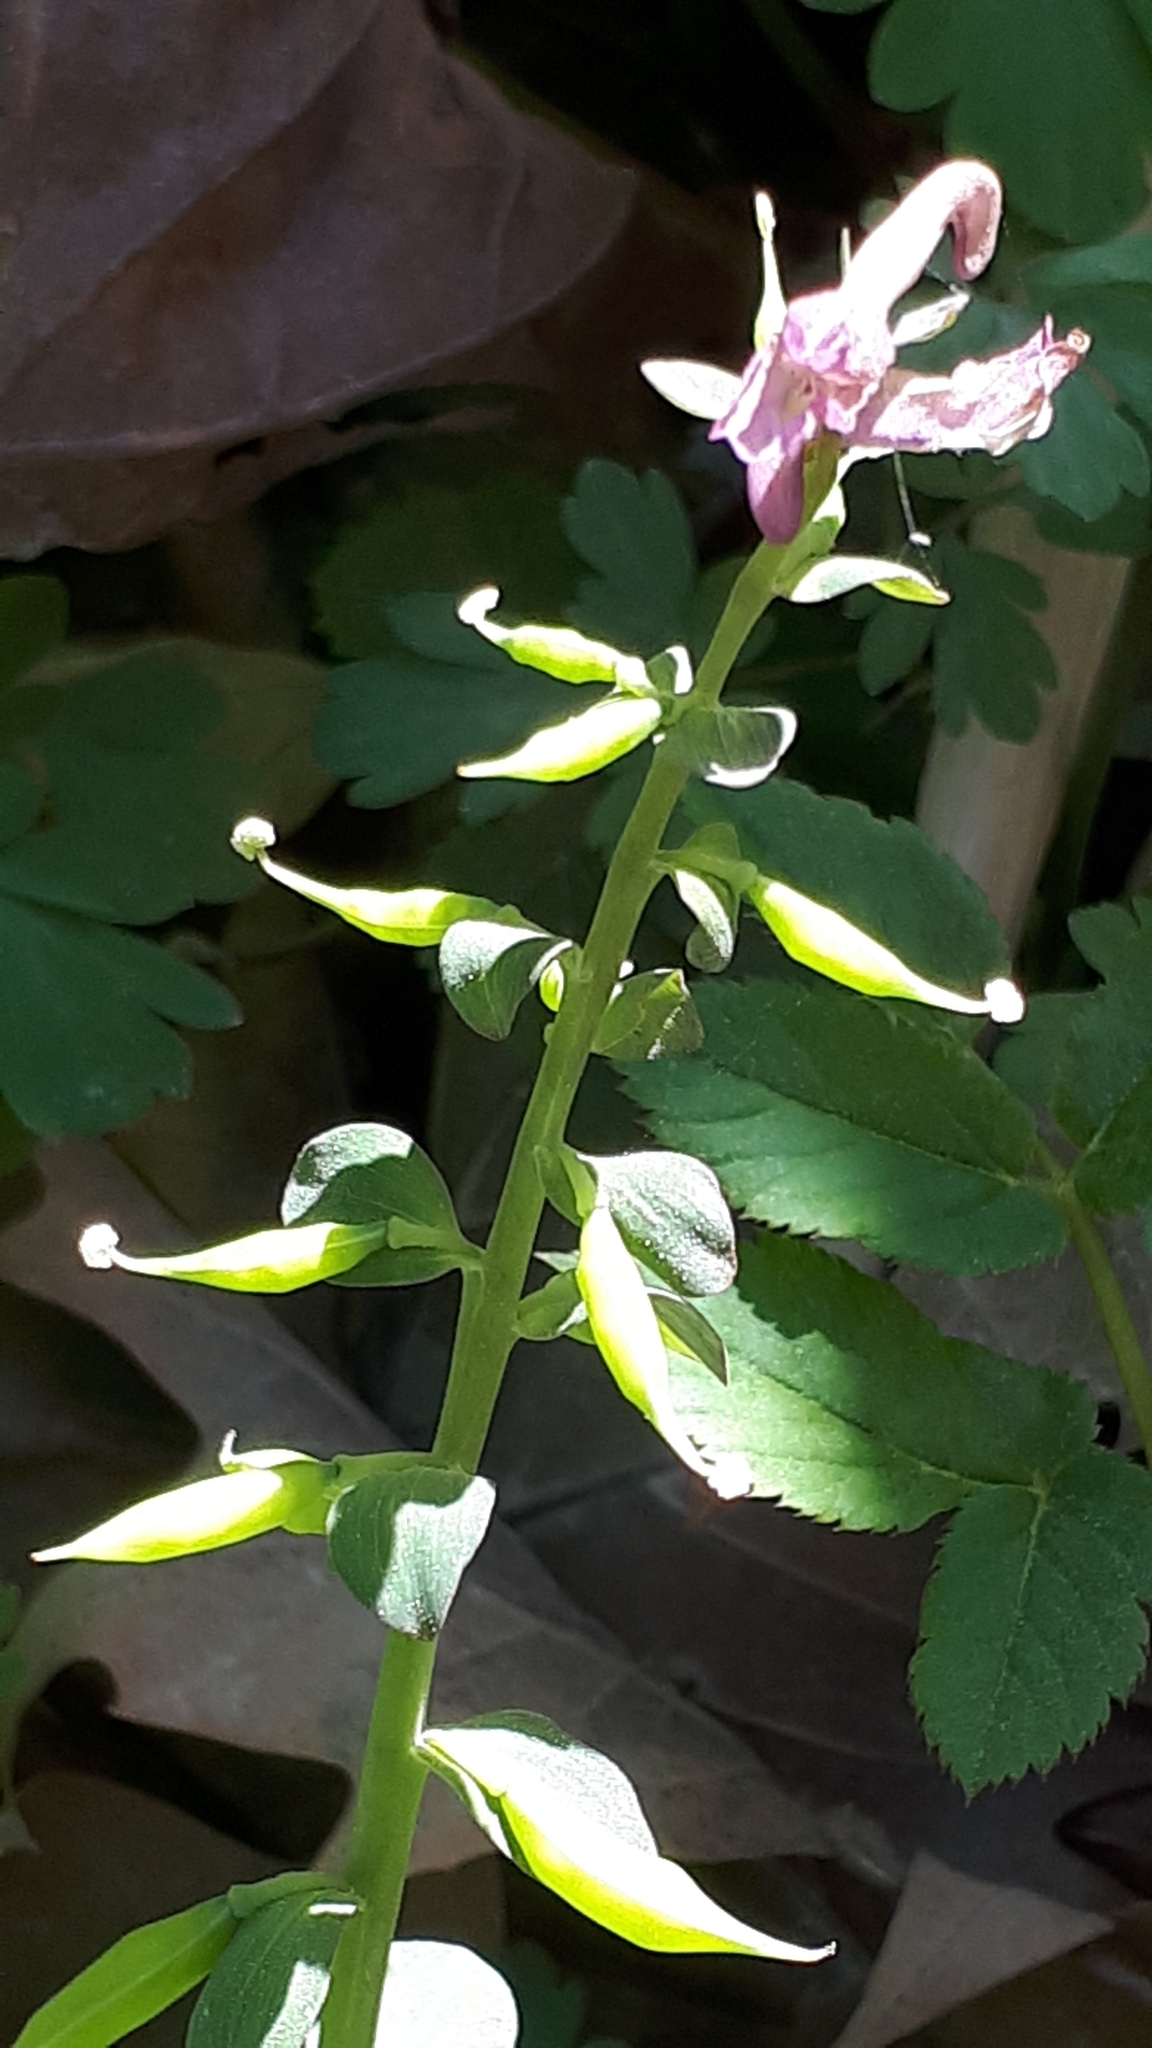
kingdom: Plantae
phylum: Tracheophyta
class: Magnoliopsida
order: Ranunculales
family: Papaveraceae
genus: Corydalis
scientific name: Corydalis cava
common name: Hollowroot
